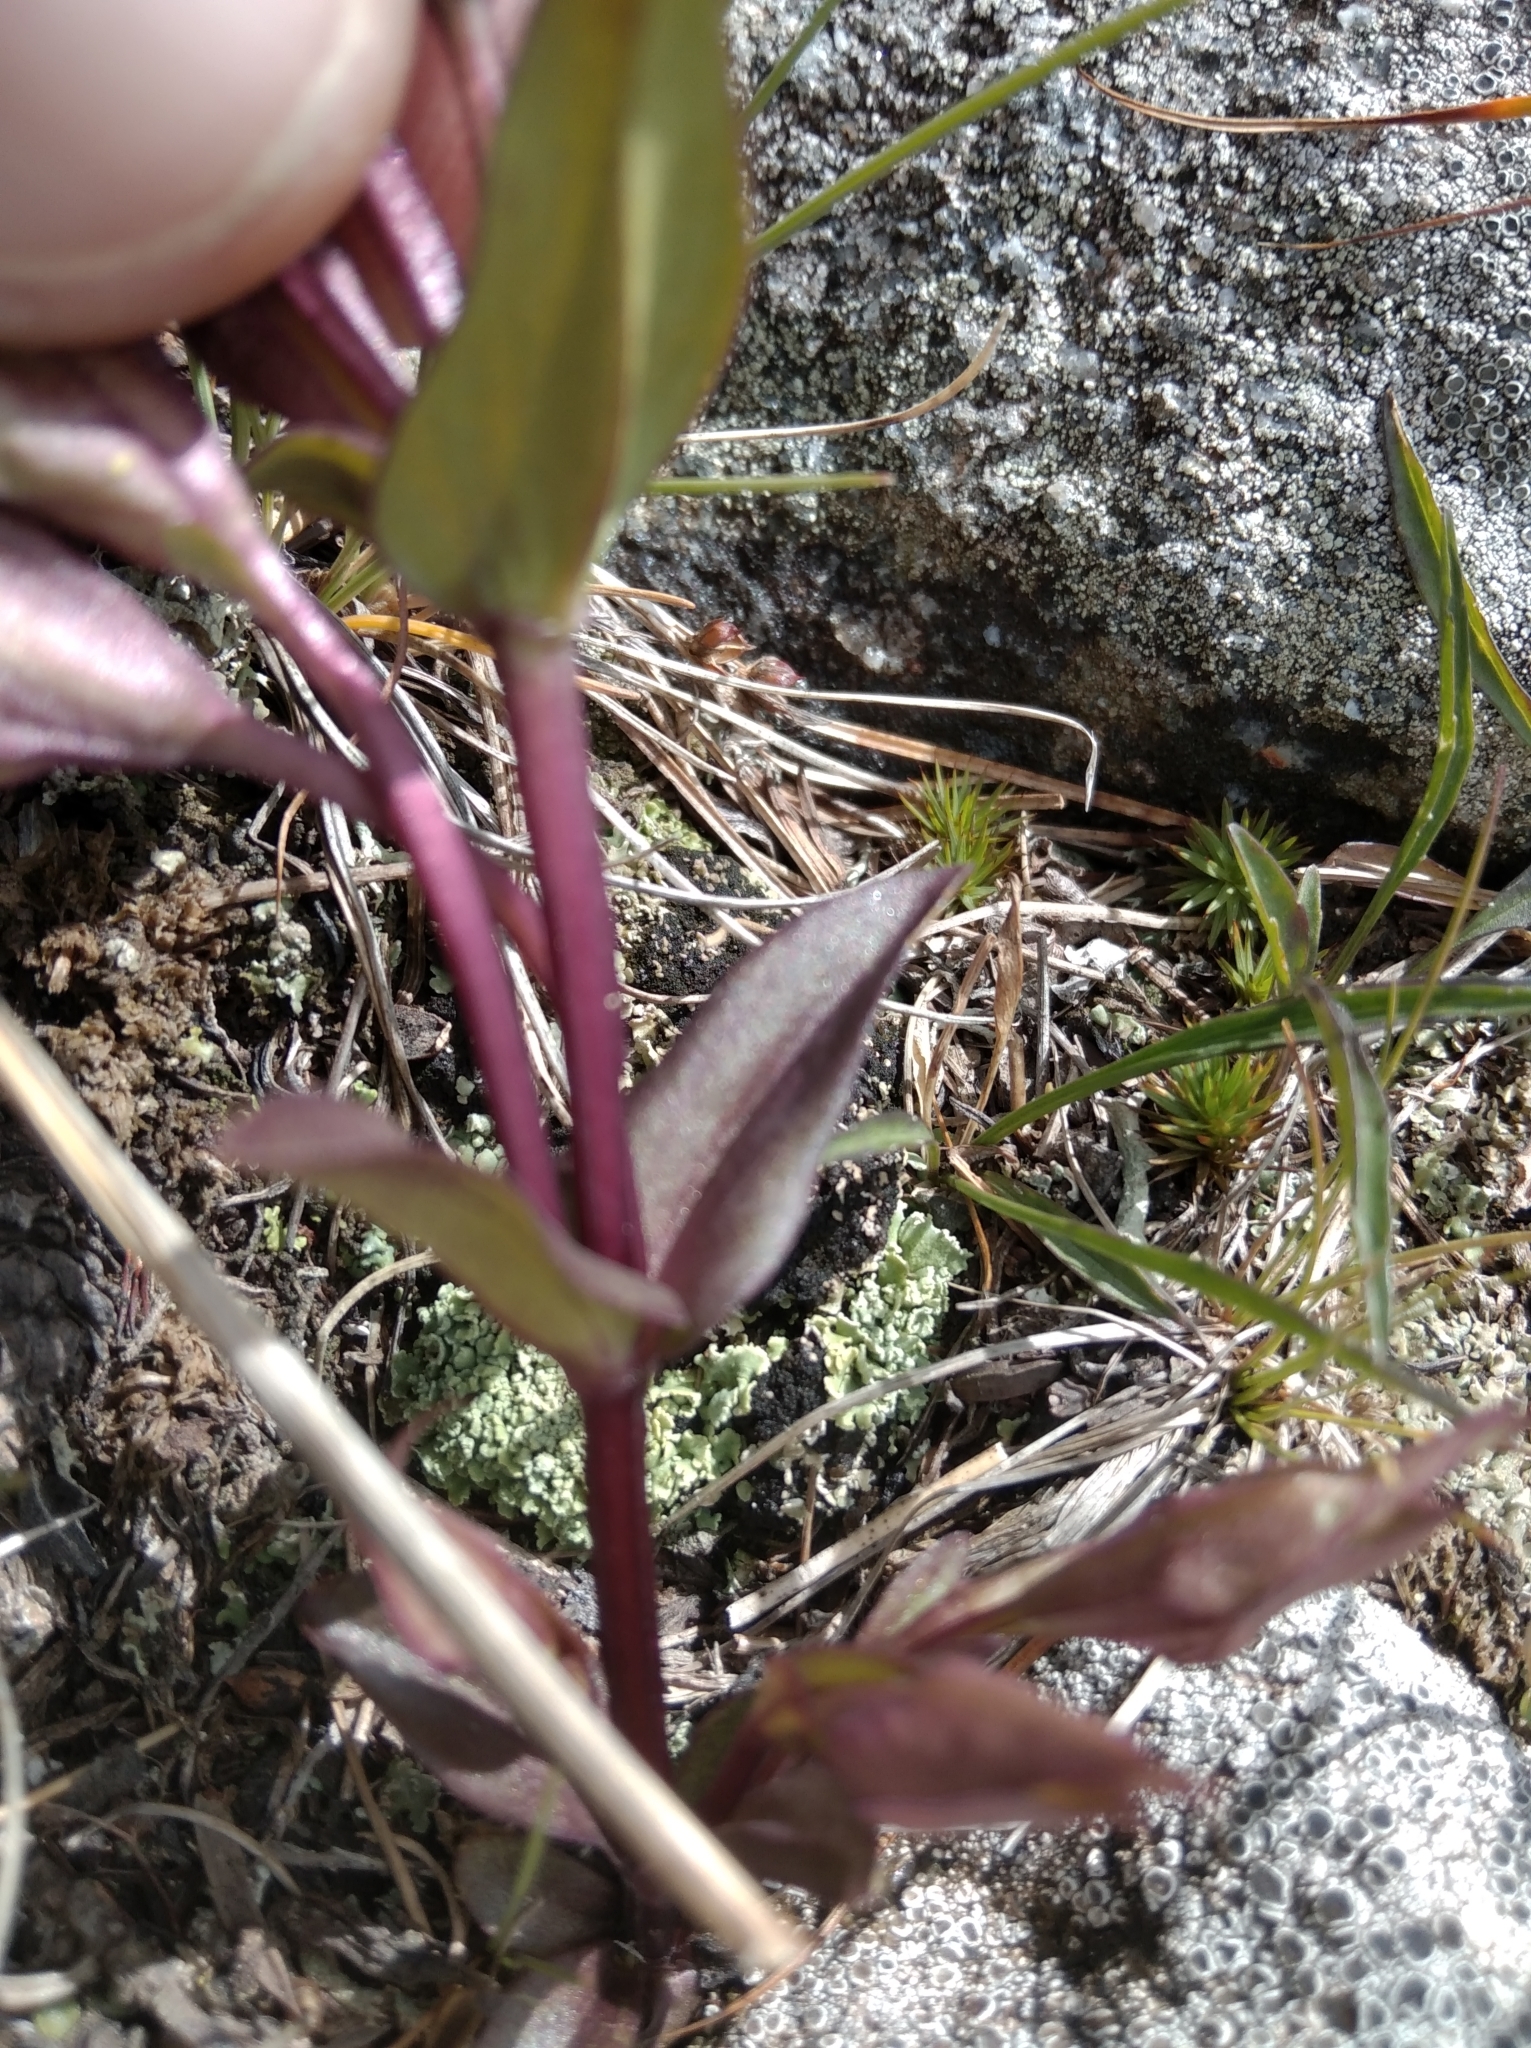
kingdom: Plantae
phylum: Tracheophyta
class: Magnoliopsida
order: Gentianales
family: Gentianaceae
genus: Gentianella
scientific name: Gentianella campestris
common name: Field gentian
